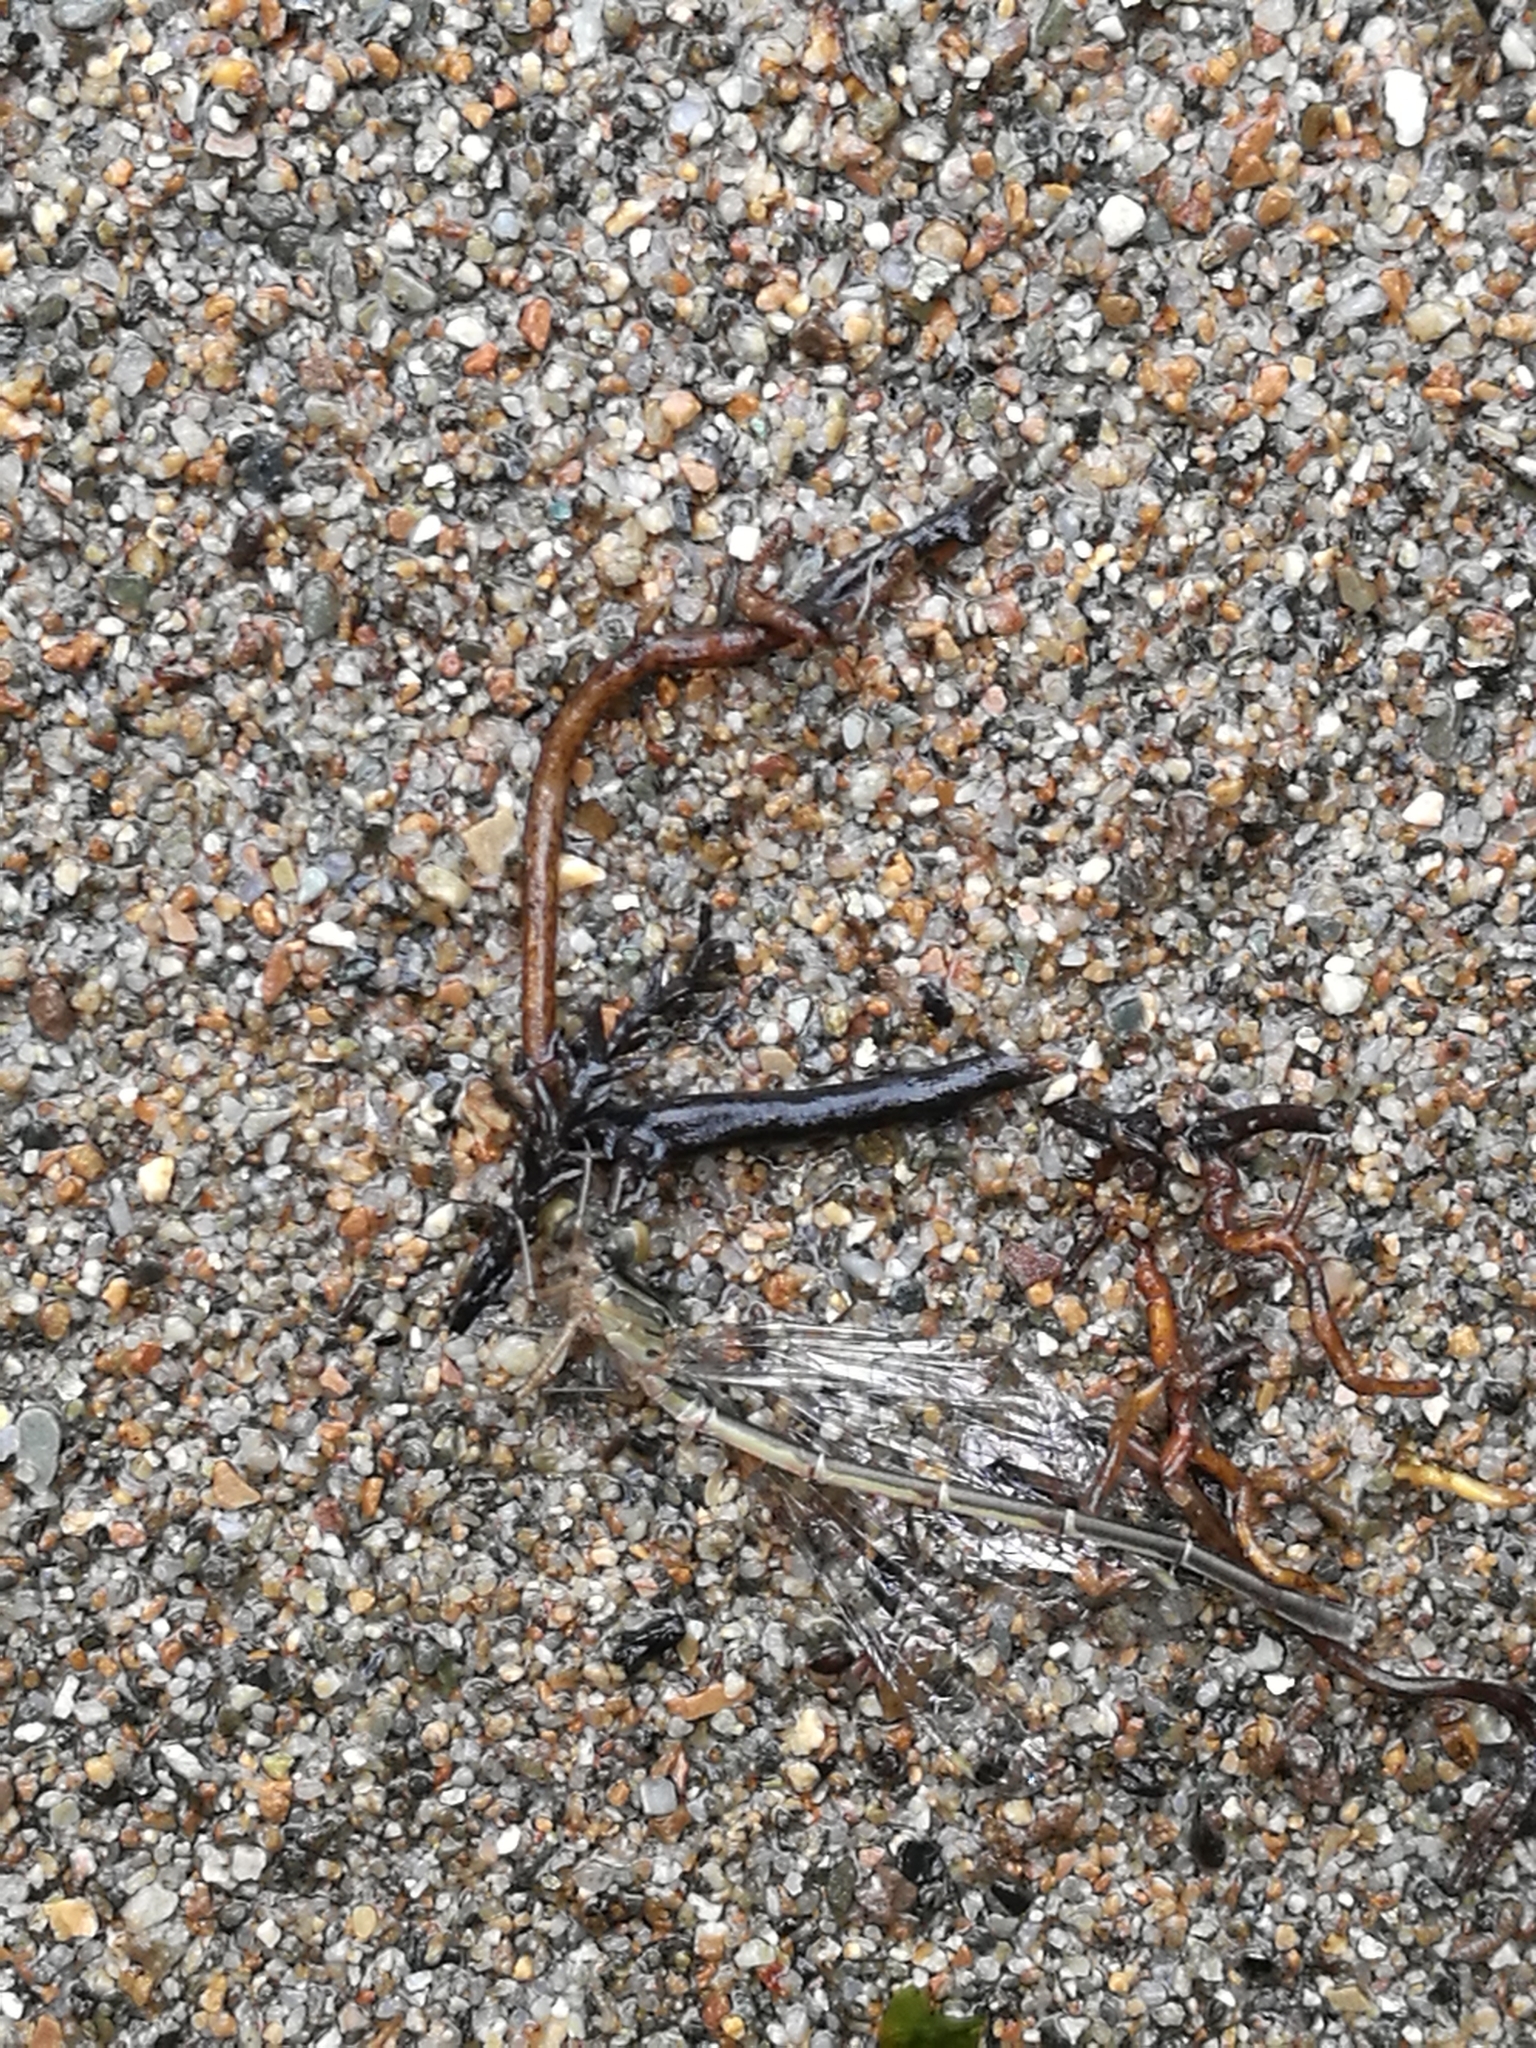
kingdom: Animalia
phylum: Arthropoda
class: Insecta
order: Odonata
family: Coenagrionidae
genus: Xanthocnemis
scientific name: Xanthocnemis zealandica
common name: Common redcoat damselfly
